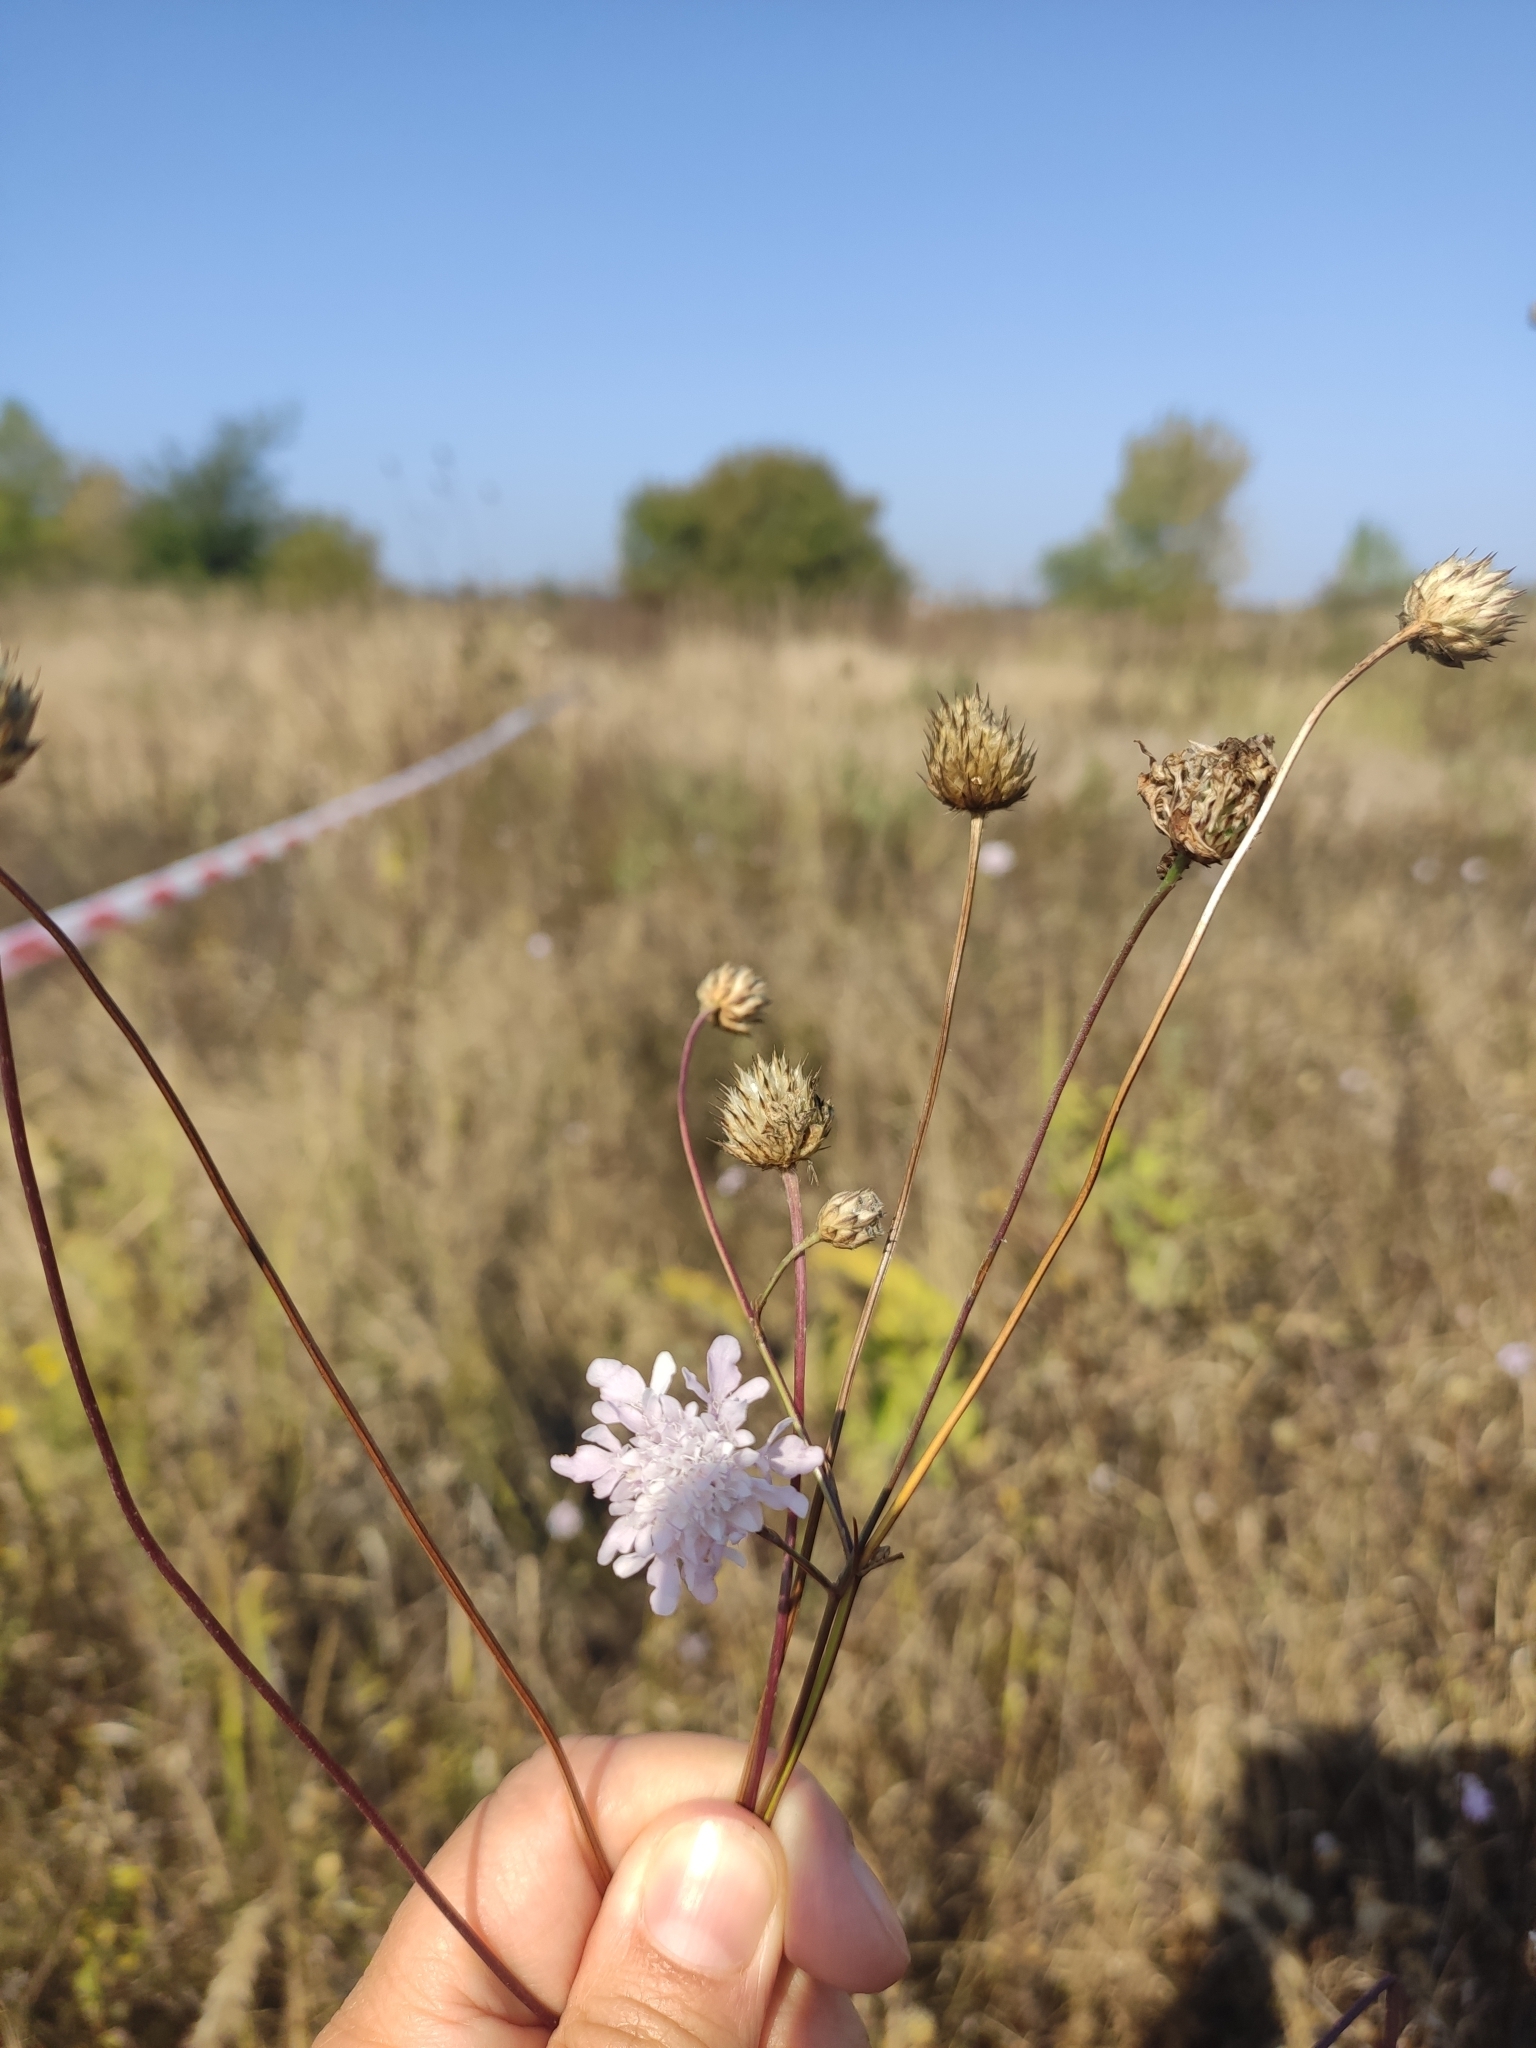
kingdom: Plantae
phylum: Tracheophyta
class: Magnoliopsida
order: Dipsacales
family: Caprifoliaceae
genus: Cephalaria
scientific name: Cephalaria transsylvanica
